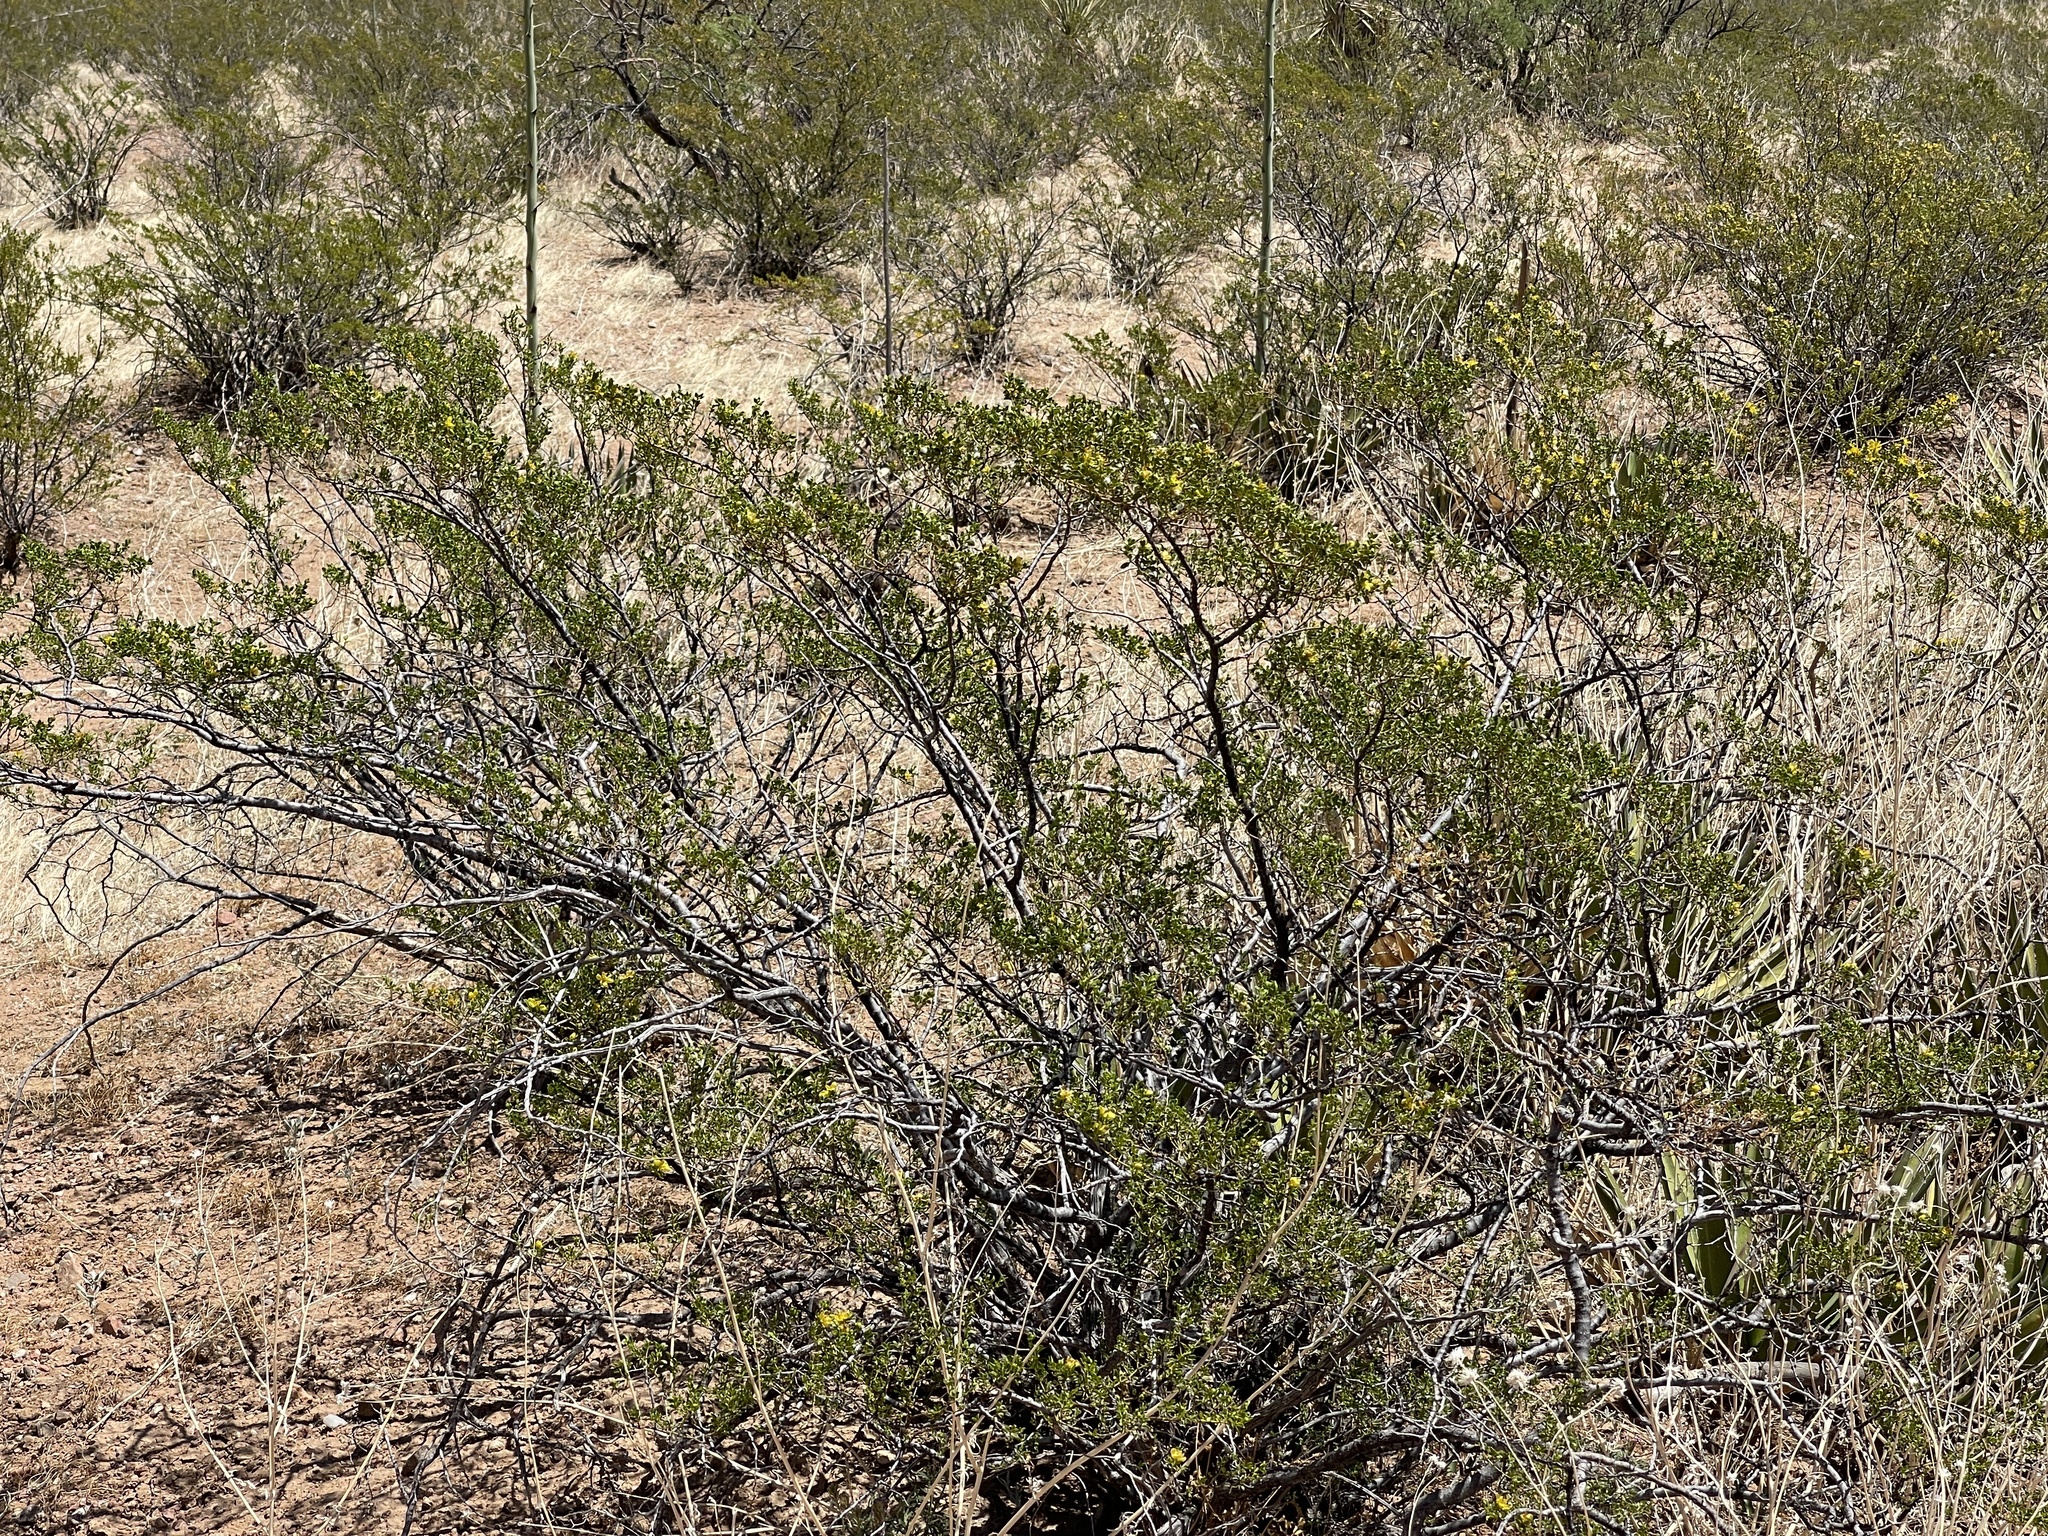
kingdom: Plantae
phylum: Tracheophyta
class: Magnoliopsida
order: Zygophyllales
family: Zygophyllaceae
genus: Larrea
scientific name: Larrea tridentata
